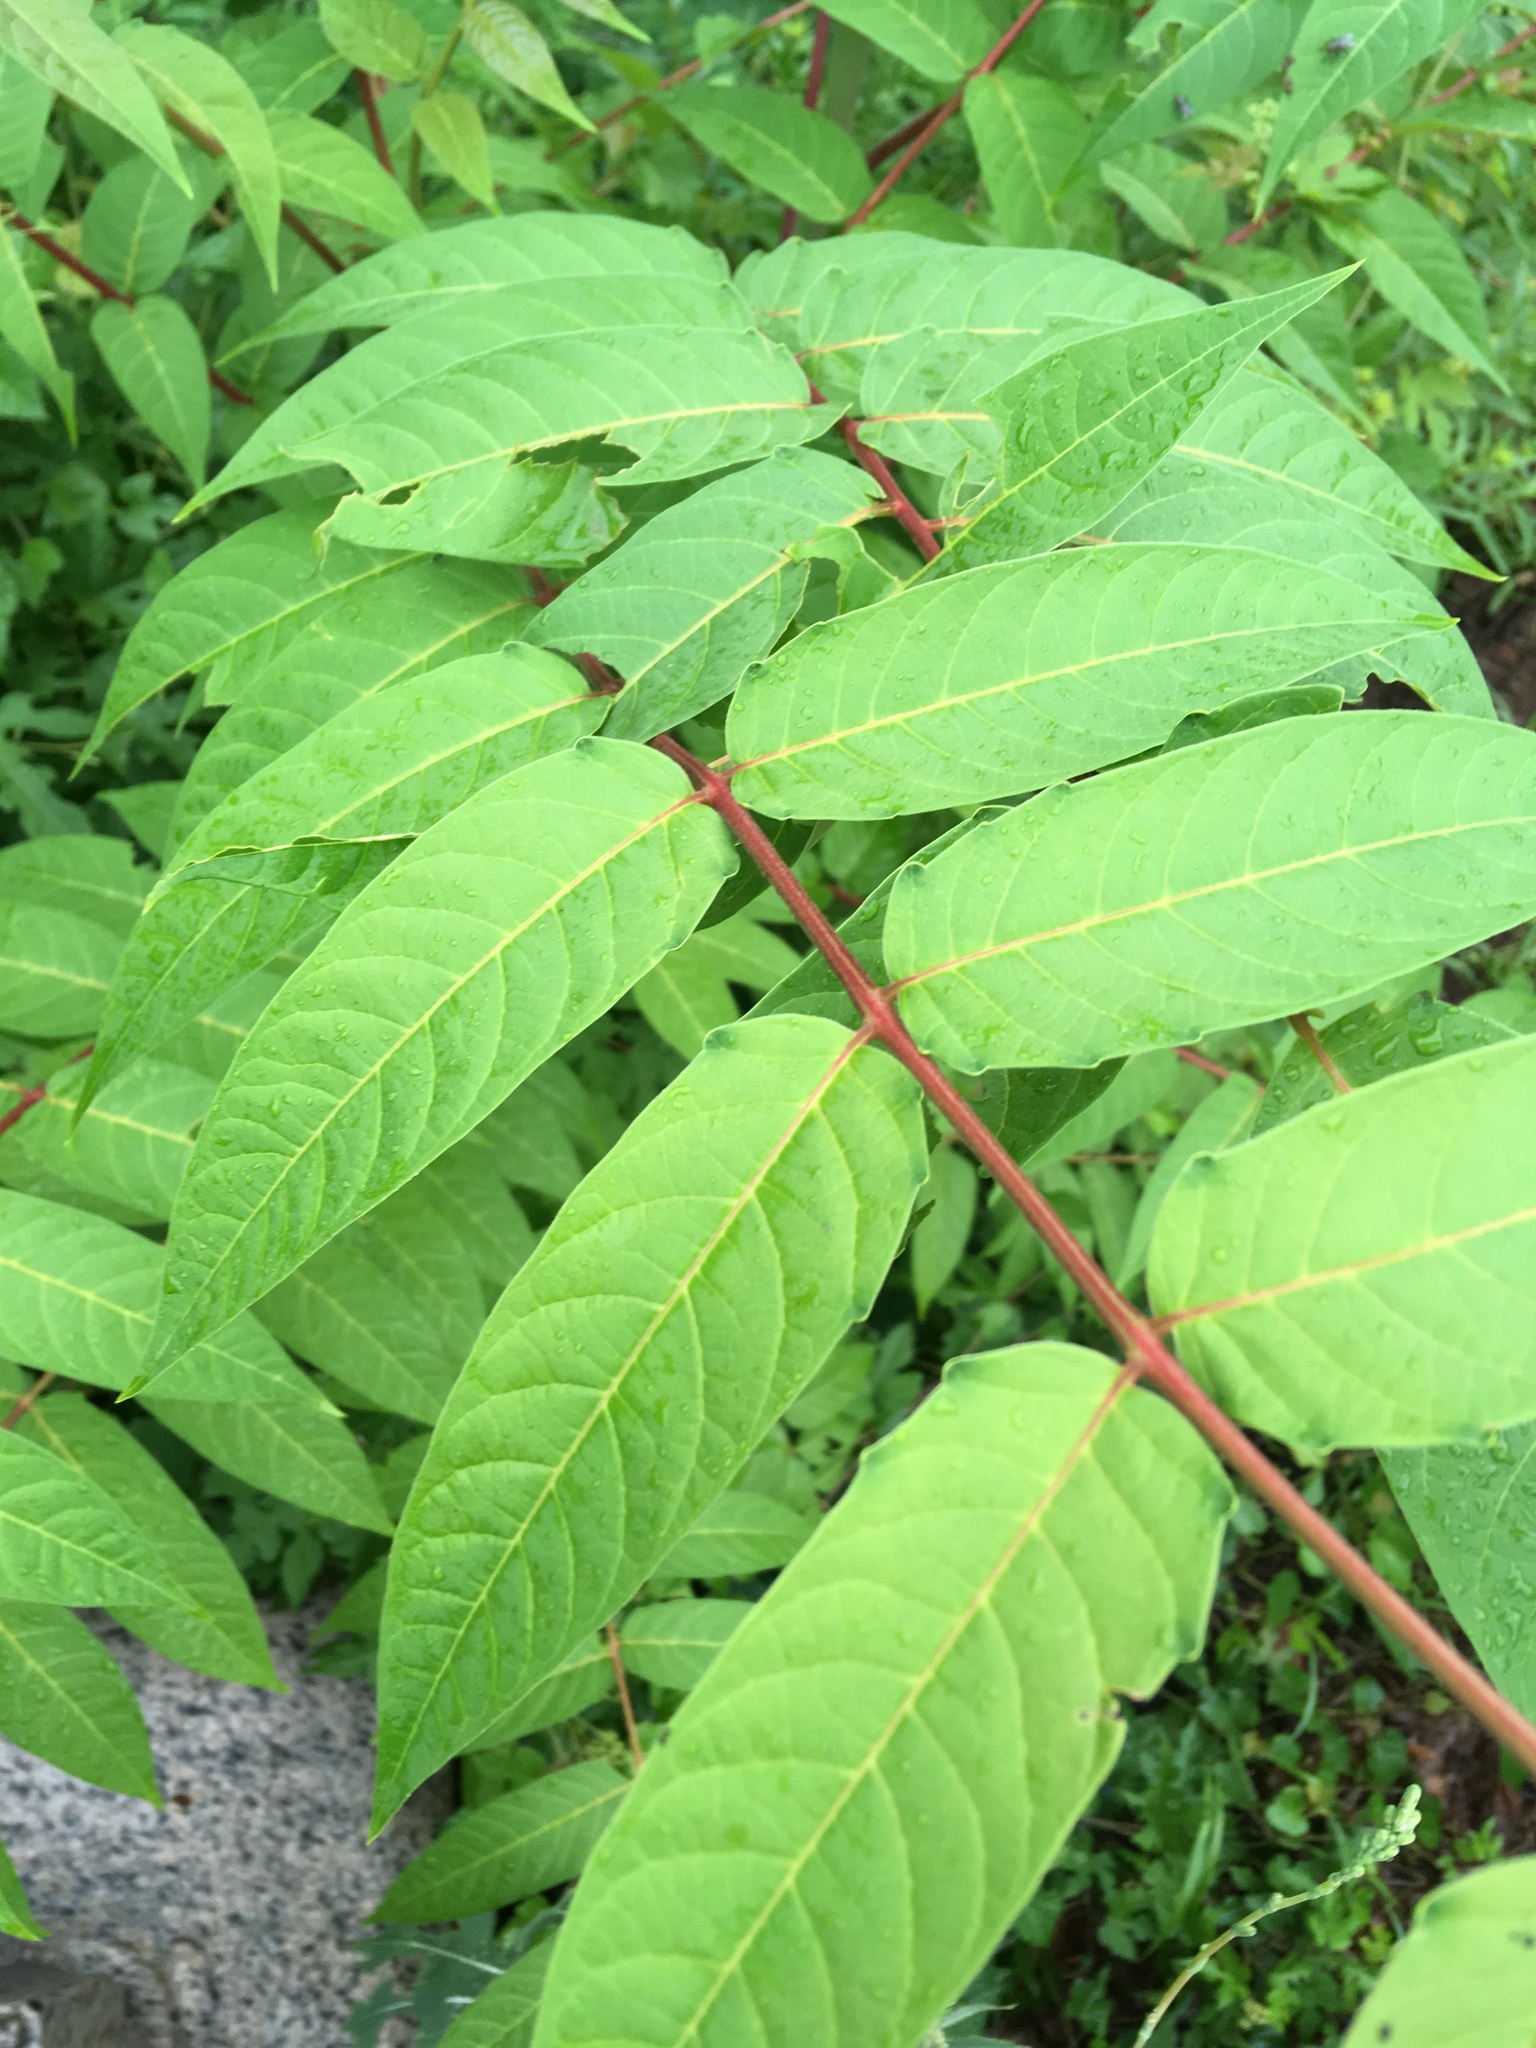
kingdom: Plantae
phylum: Tracheophyta
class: Magnoliopsida
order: Sapindales
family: Simaroubaceae
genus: Ailanthus
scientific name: Ailanthus altissima
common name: Tree-of-heaven
